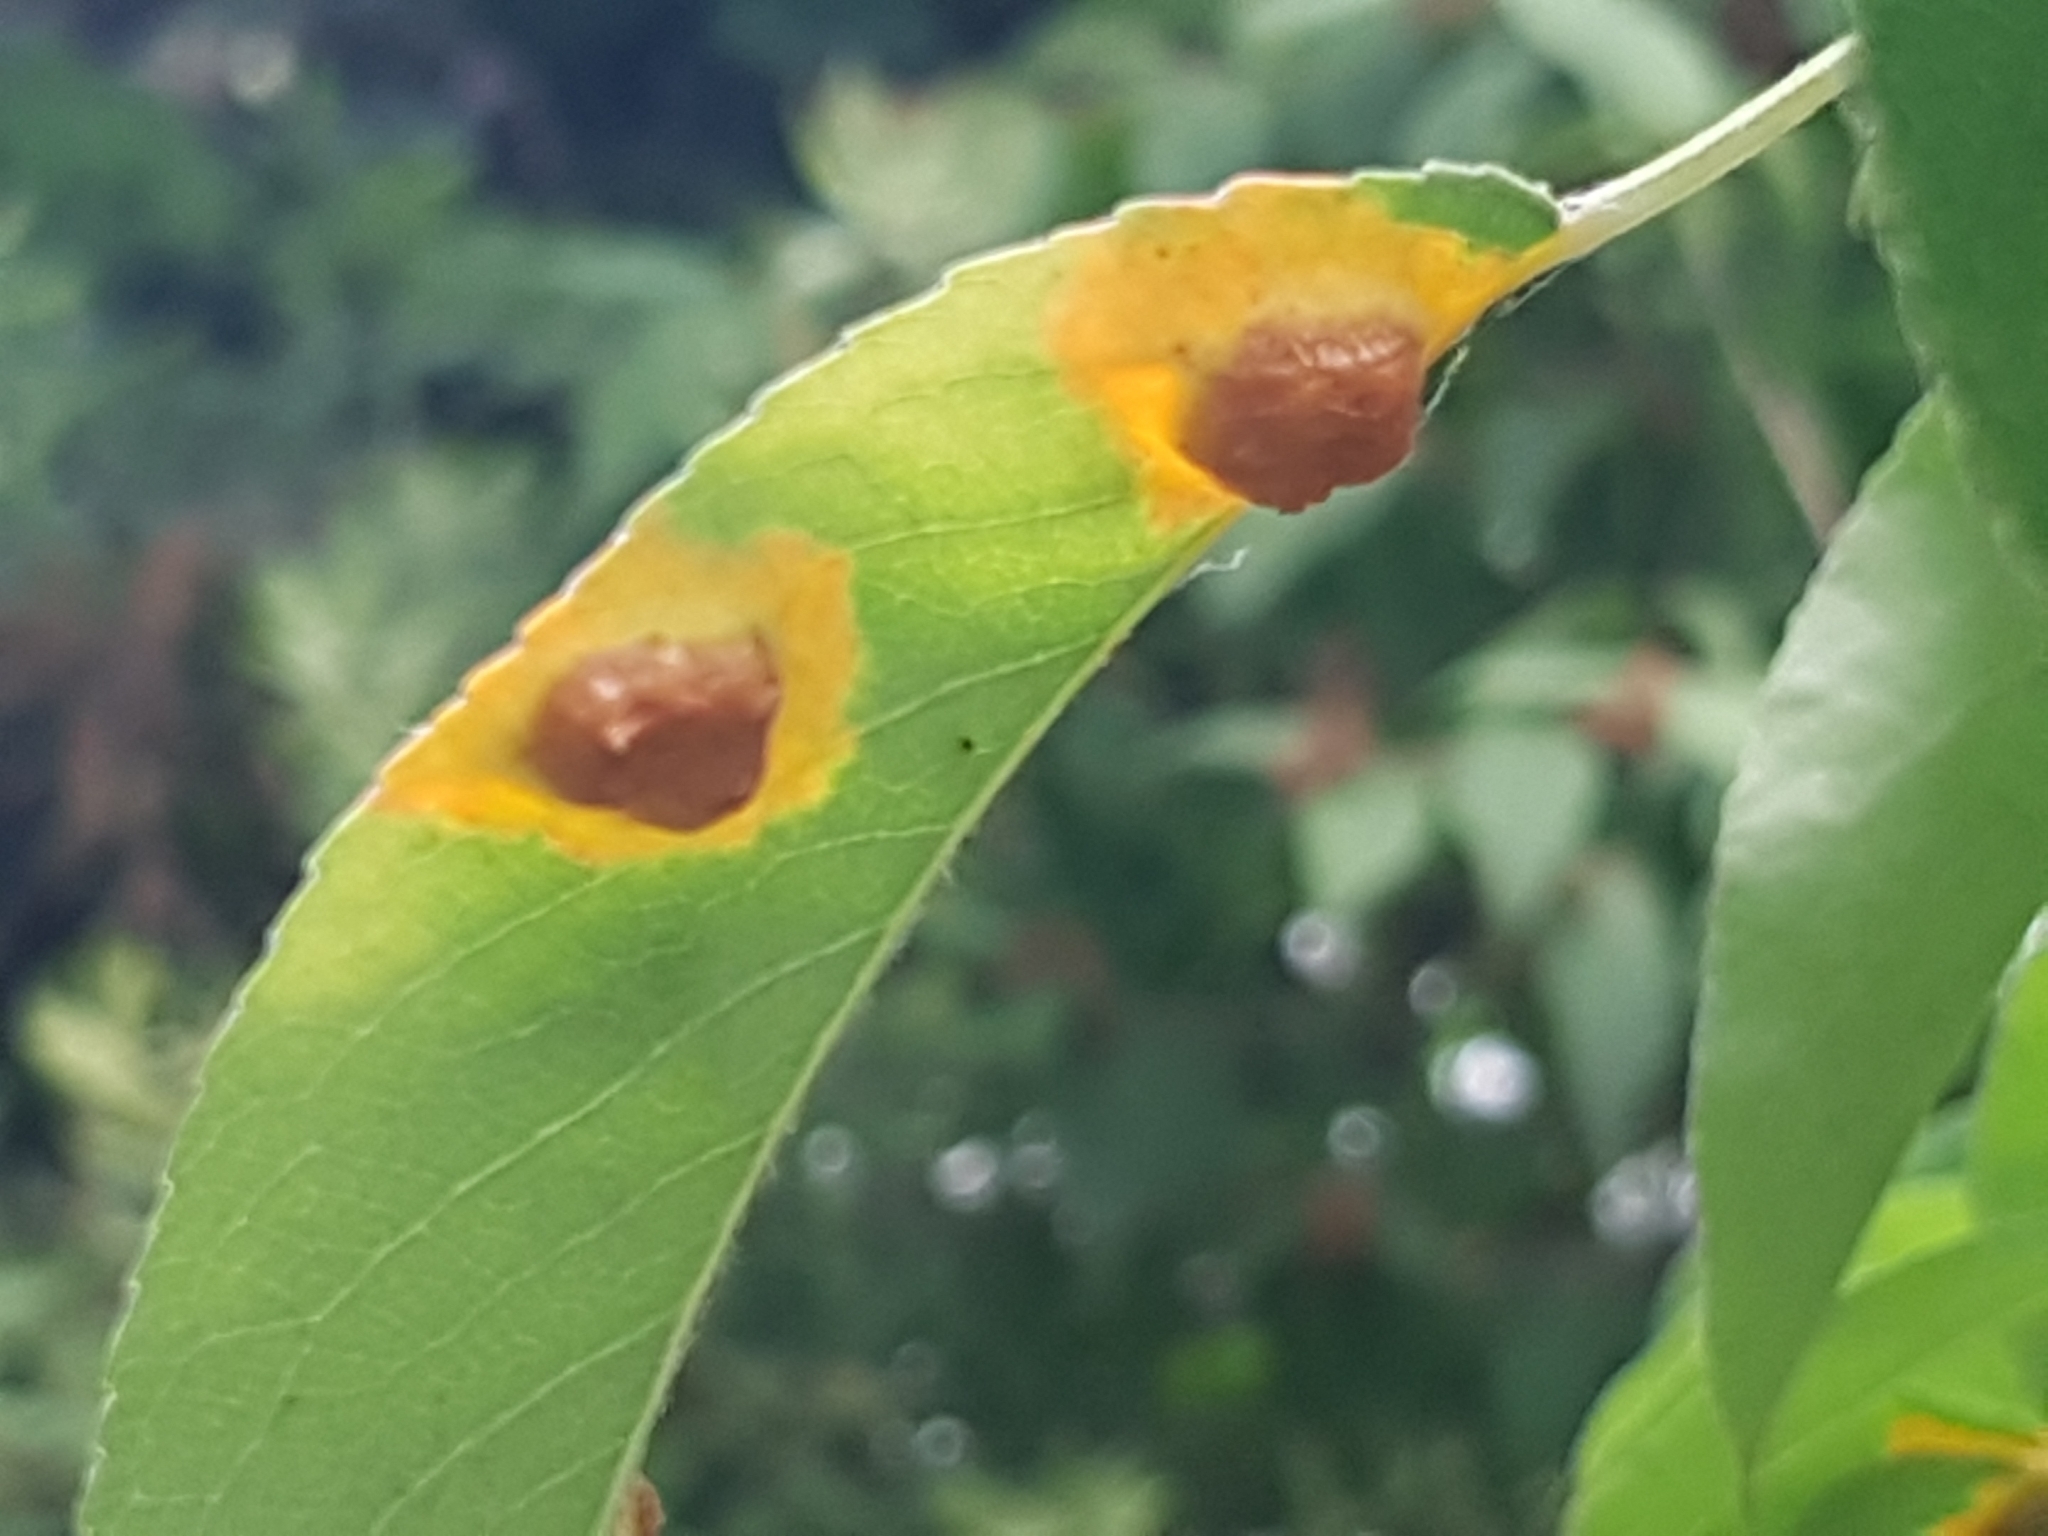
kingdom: Fungi
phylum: Basidiomycota
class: Pucciniomycetes
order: Pucciniales
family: Gymnosporangiaceae
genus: Gymnosporangium
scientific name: Gymnosporangium sabinae
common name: Pear trellis rust fungus
